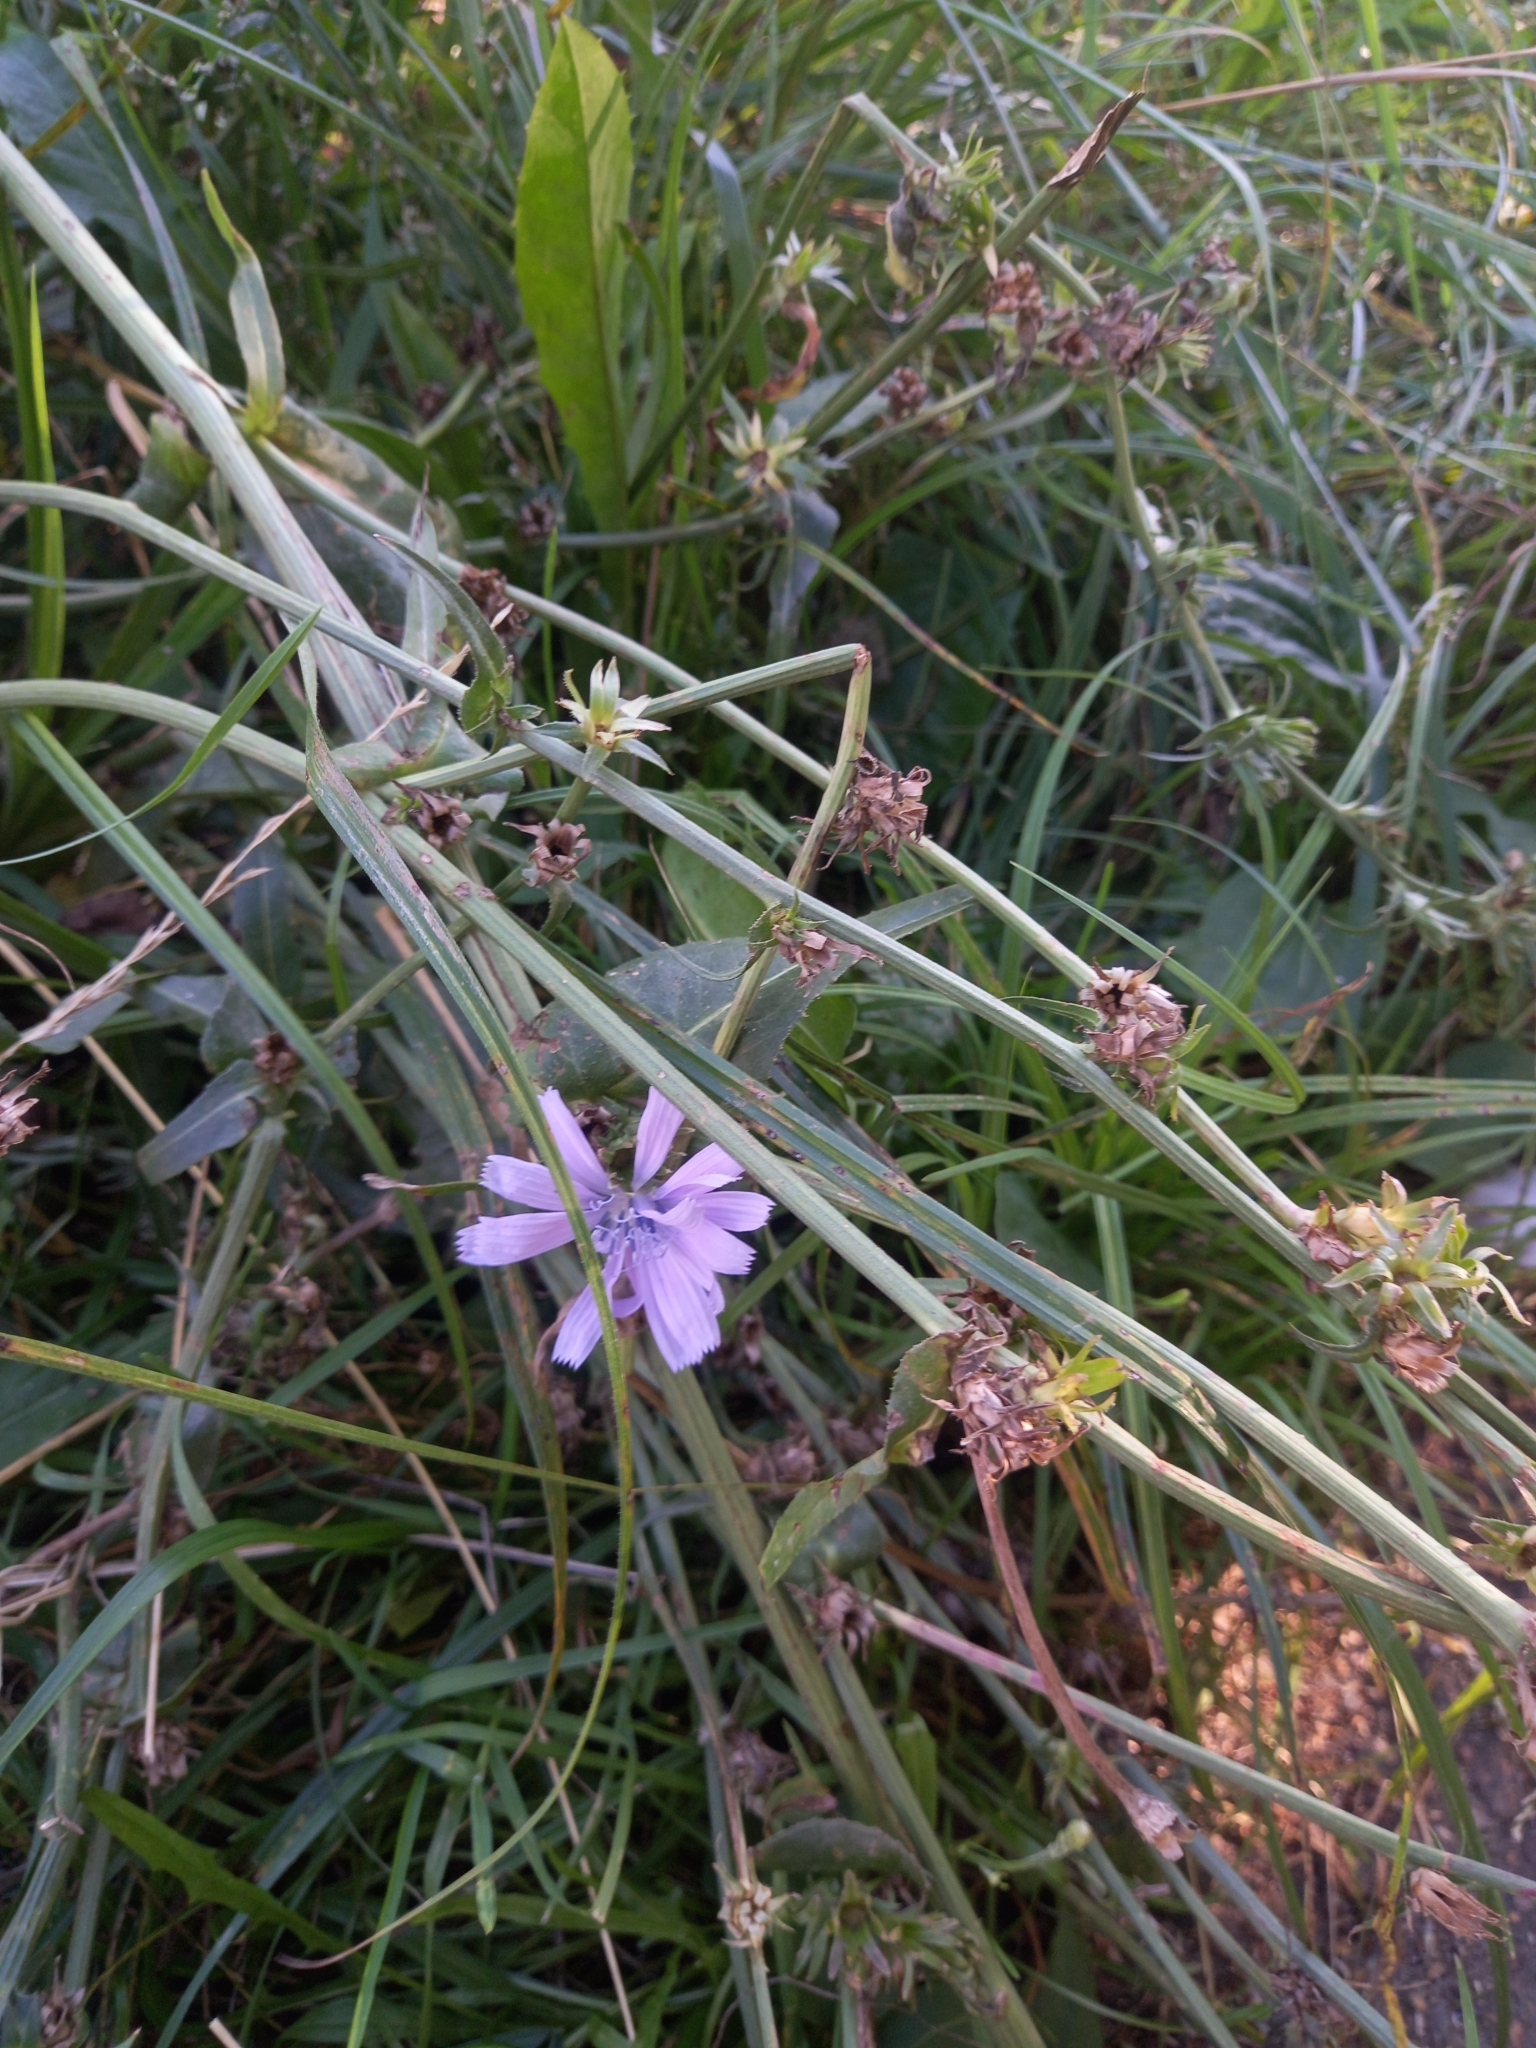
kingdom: Plantae
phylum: Tracheophyta
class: Magnoliopsida
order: Asterales
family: Asteraceae
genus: Cichorium
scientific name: Cichorium intybus
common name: Chicory
